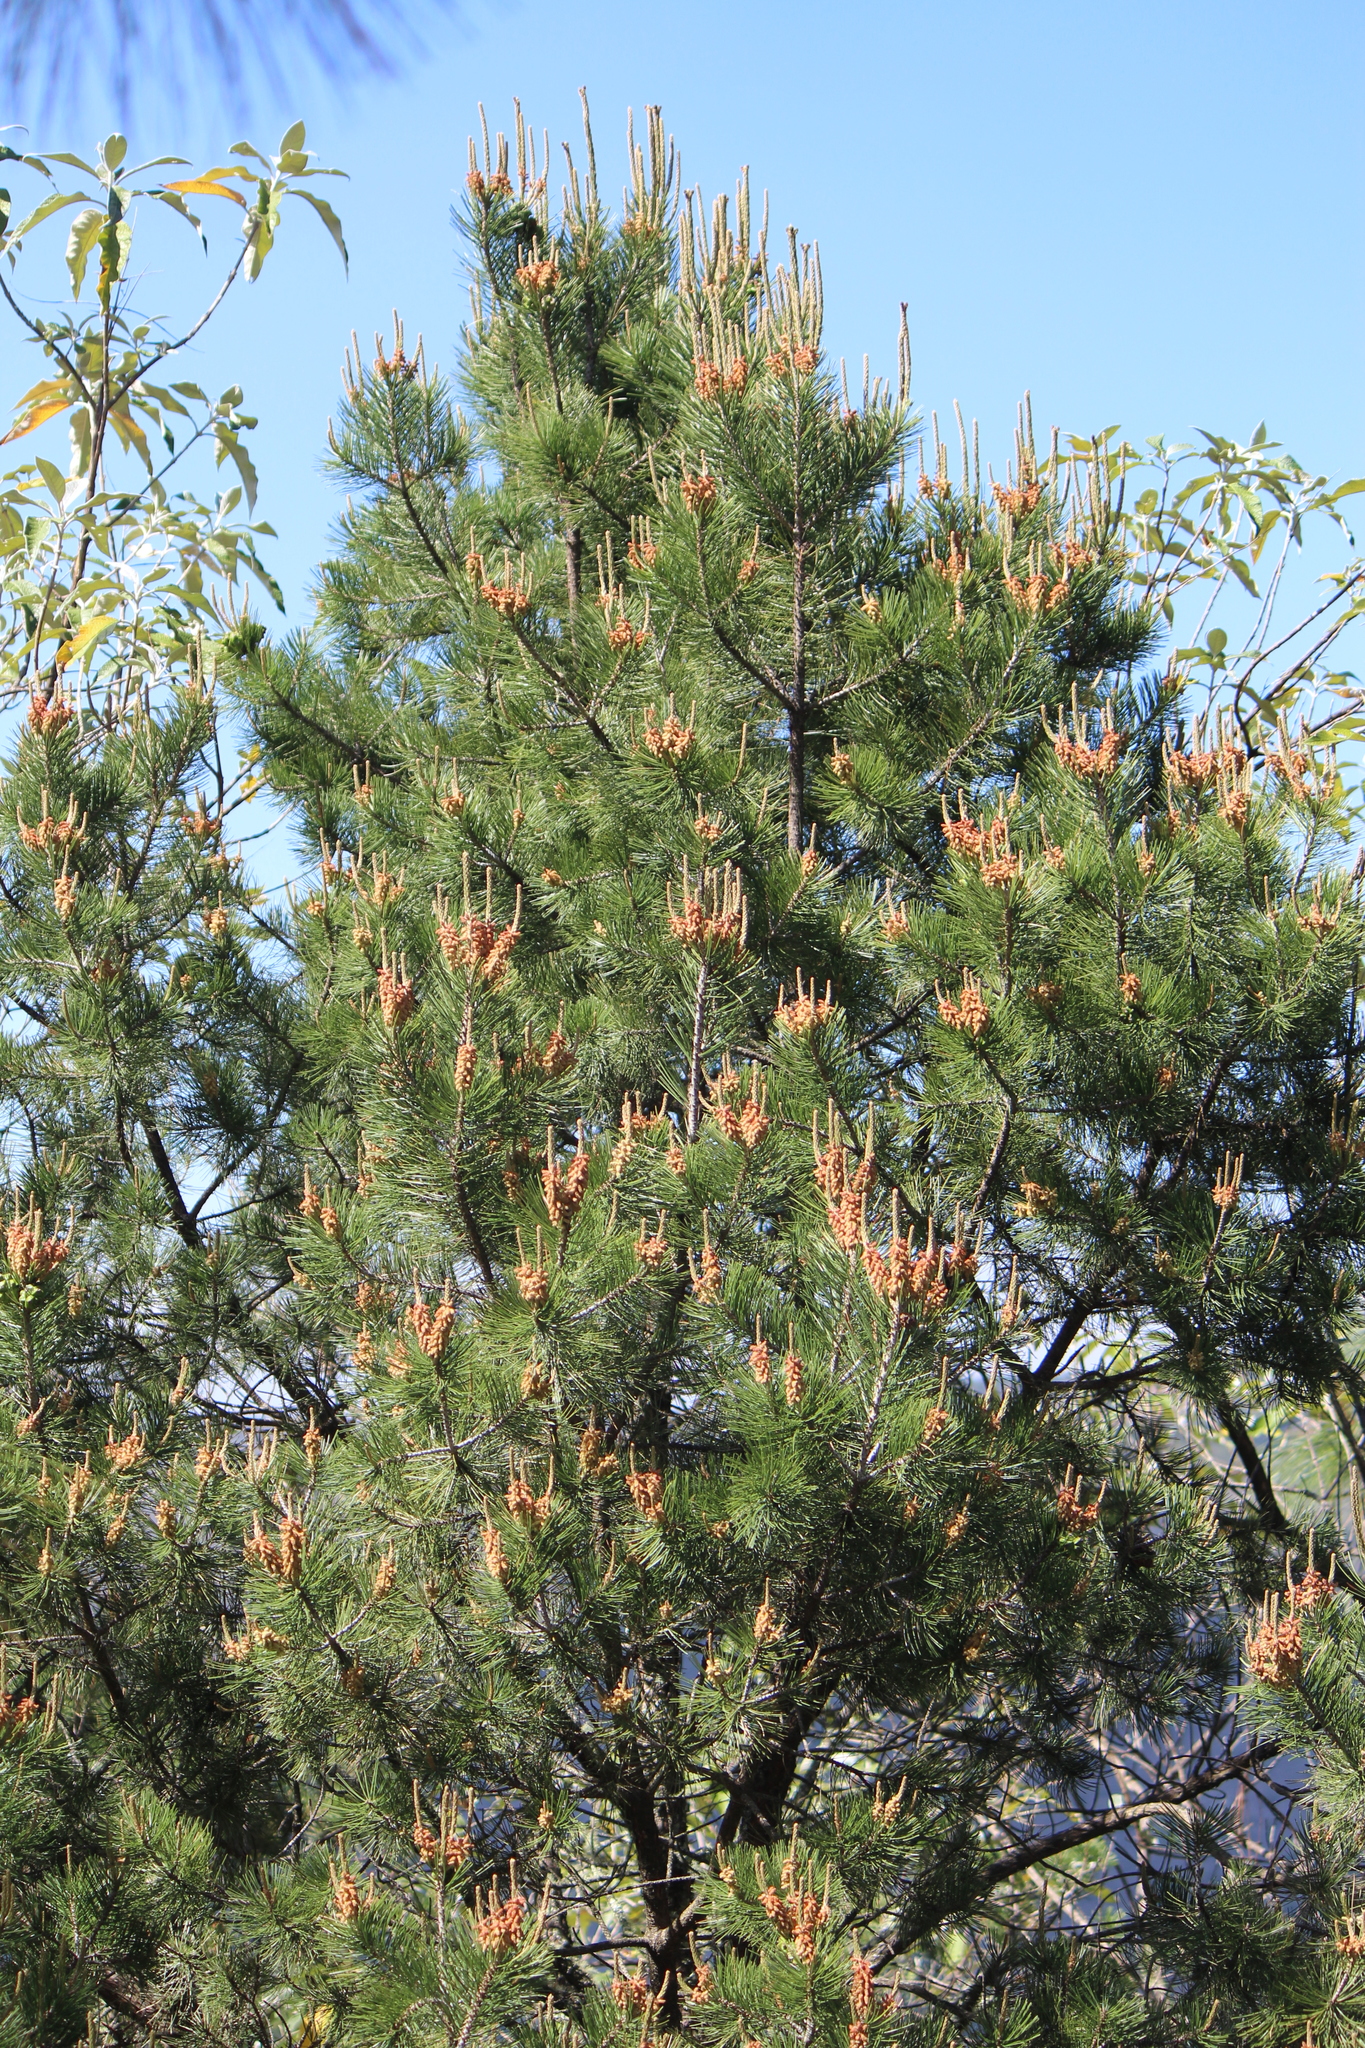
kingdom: Plantae
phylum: Tracheophyta
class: Pinopsida
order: Pinales
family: Pinaceae
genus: Pinus
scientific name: Pinus pseudostrobus
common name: False weymouth pine
